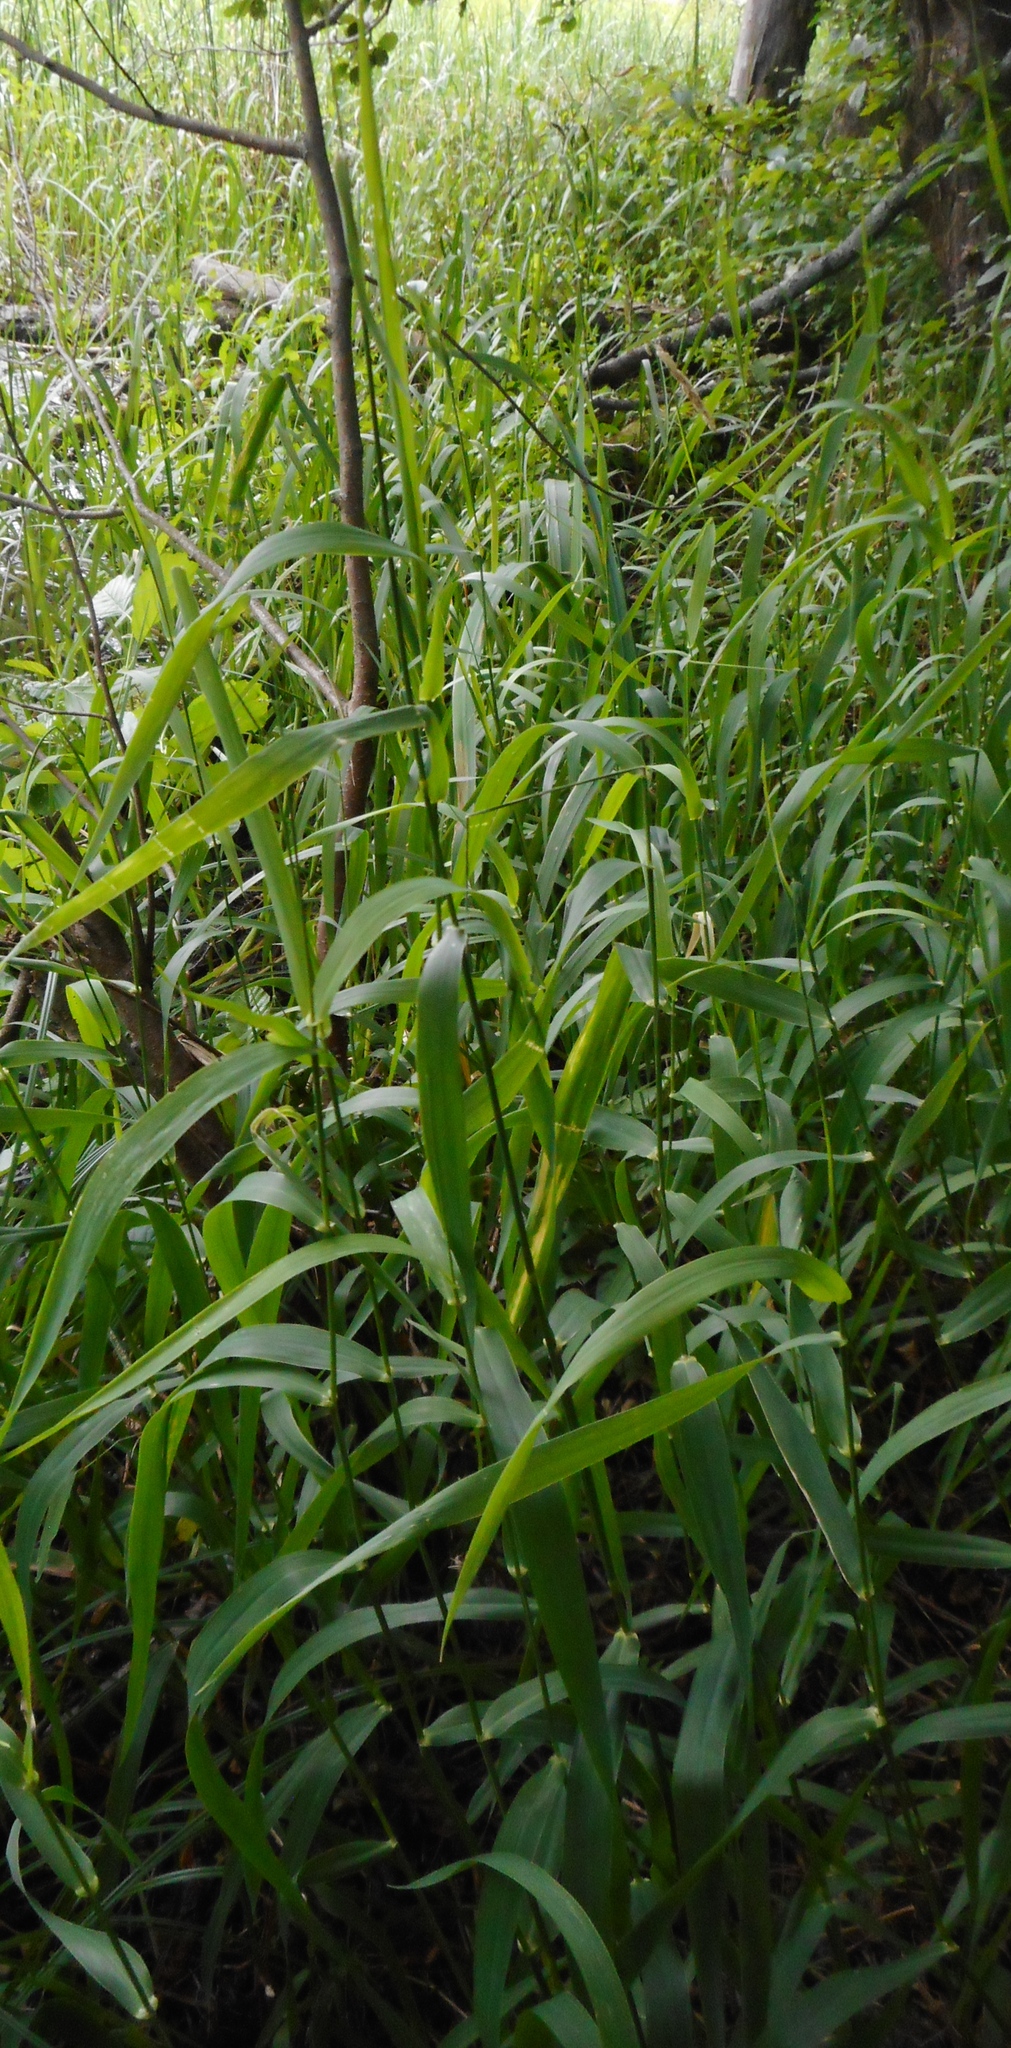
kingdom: Plantae
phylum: Tracheophyta
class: Liliopsida
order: Poales
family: Poaceae
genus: Phragmites
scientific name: Phragmites australis
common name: Common reed
